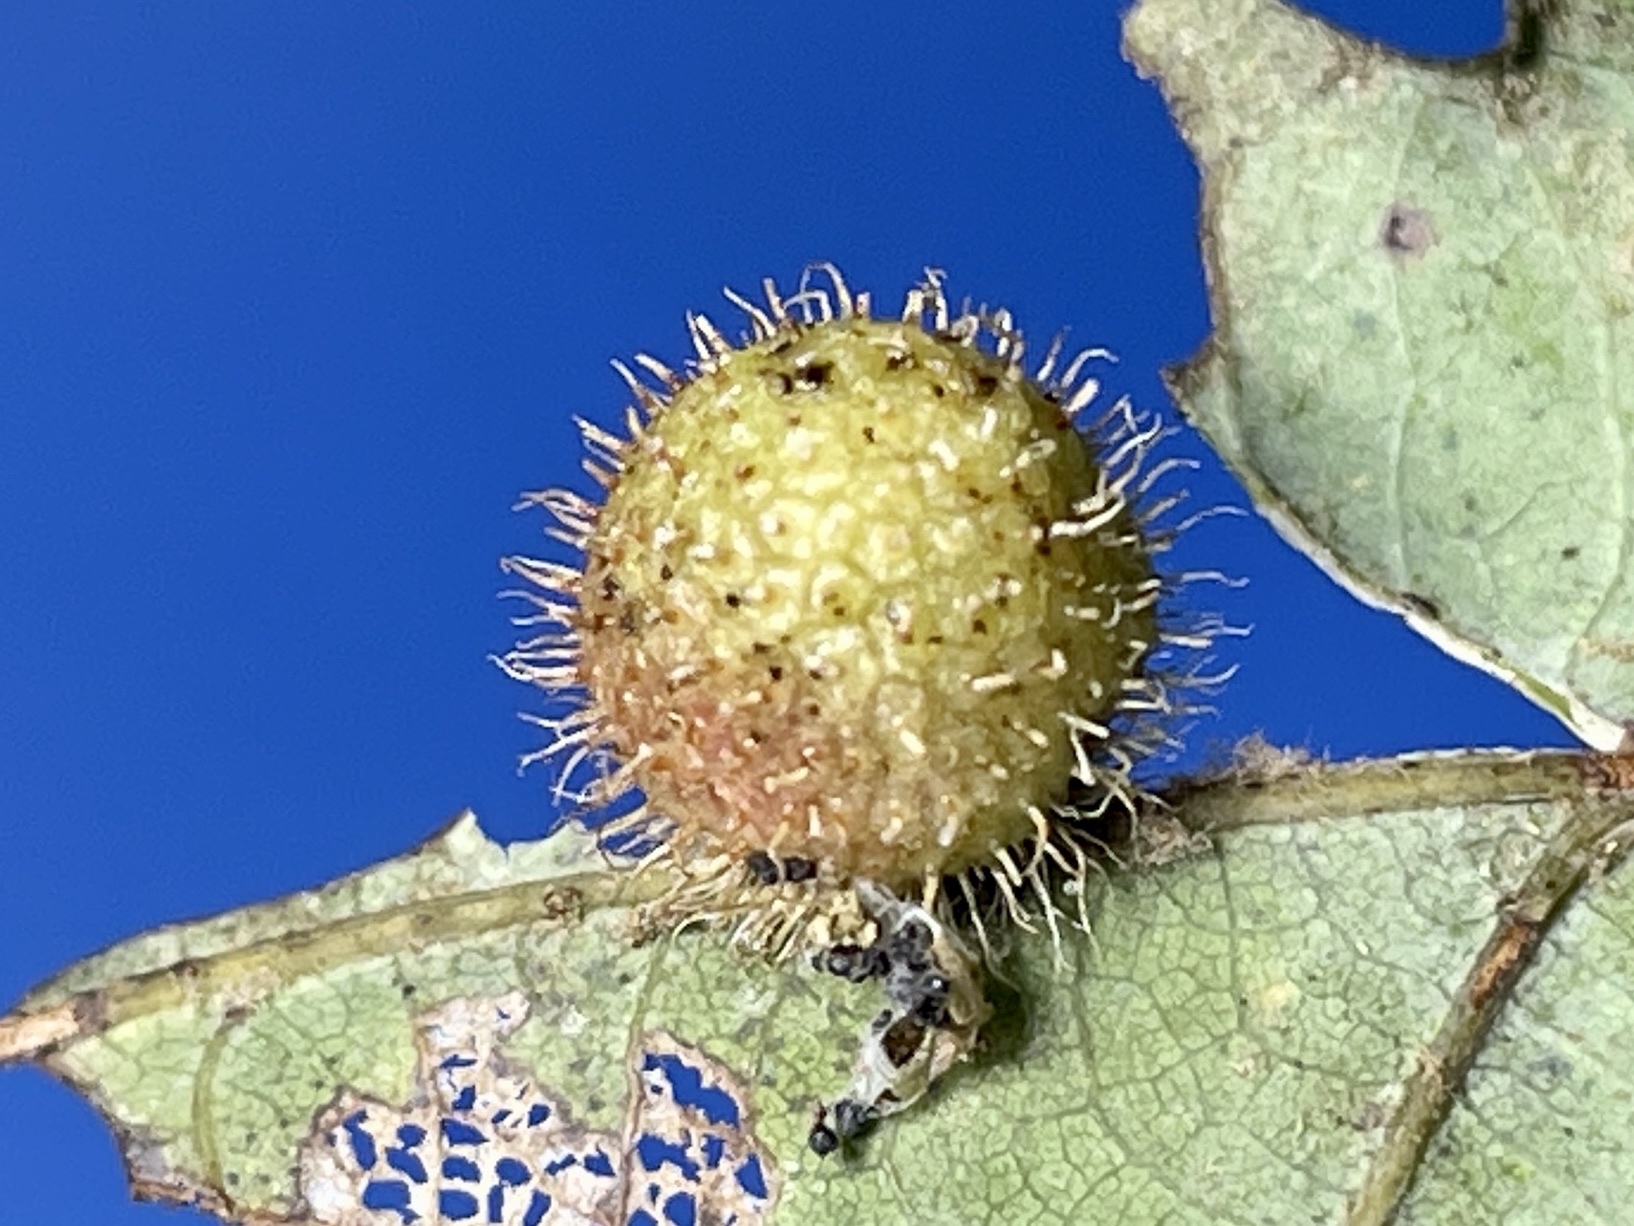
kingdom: Animalia
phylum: Arthropoda
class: Insecta
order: Hymenoptera
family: Cynipidae
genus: Acraspis
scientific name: Acraspis erinacei
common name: Hedgehog gall wasp
